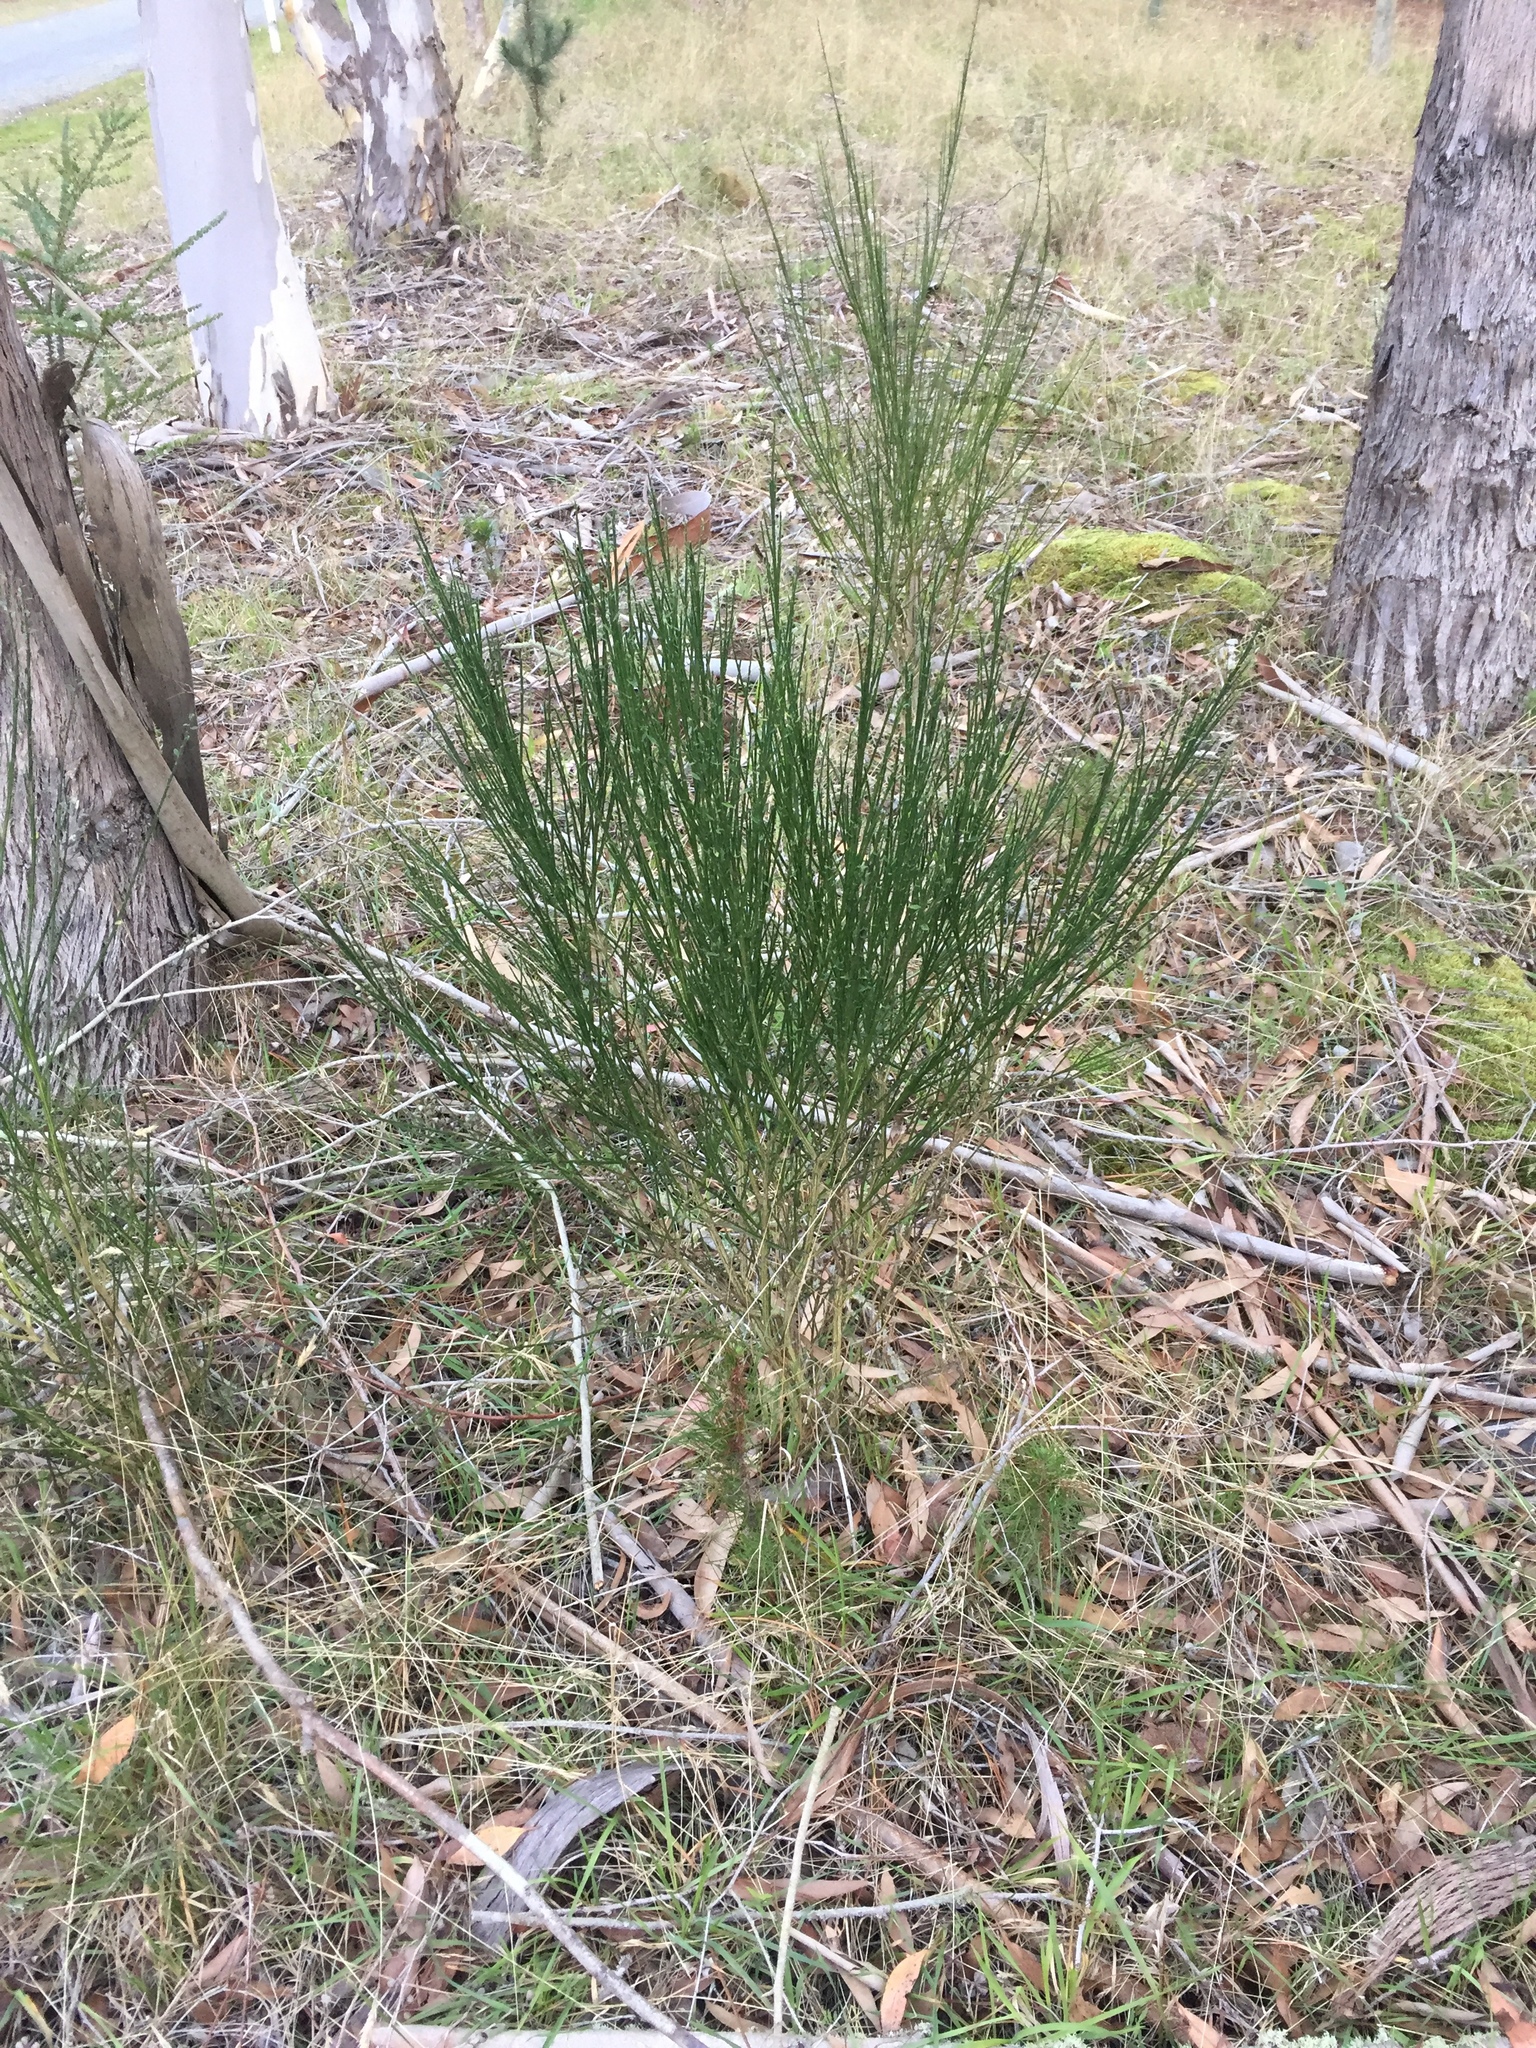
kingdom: Plantae
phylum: Tracheophyta
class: Magnoliopsida
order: Fabales
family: Fabaceae
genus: Cytisus
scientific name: Cytisus scoparius
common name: Scotch broom
